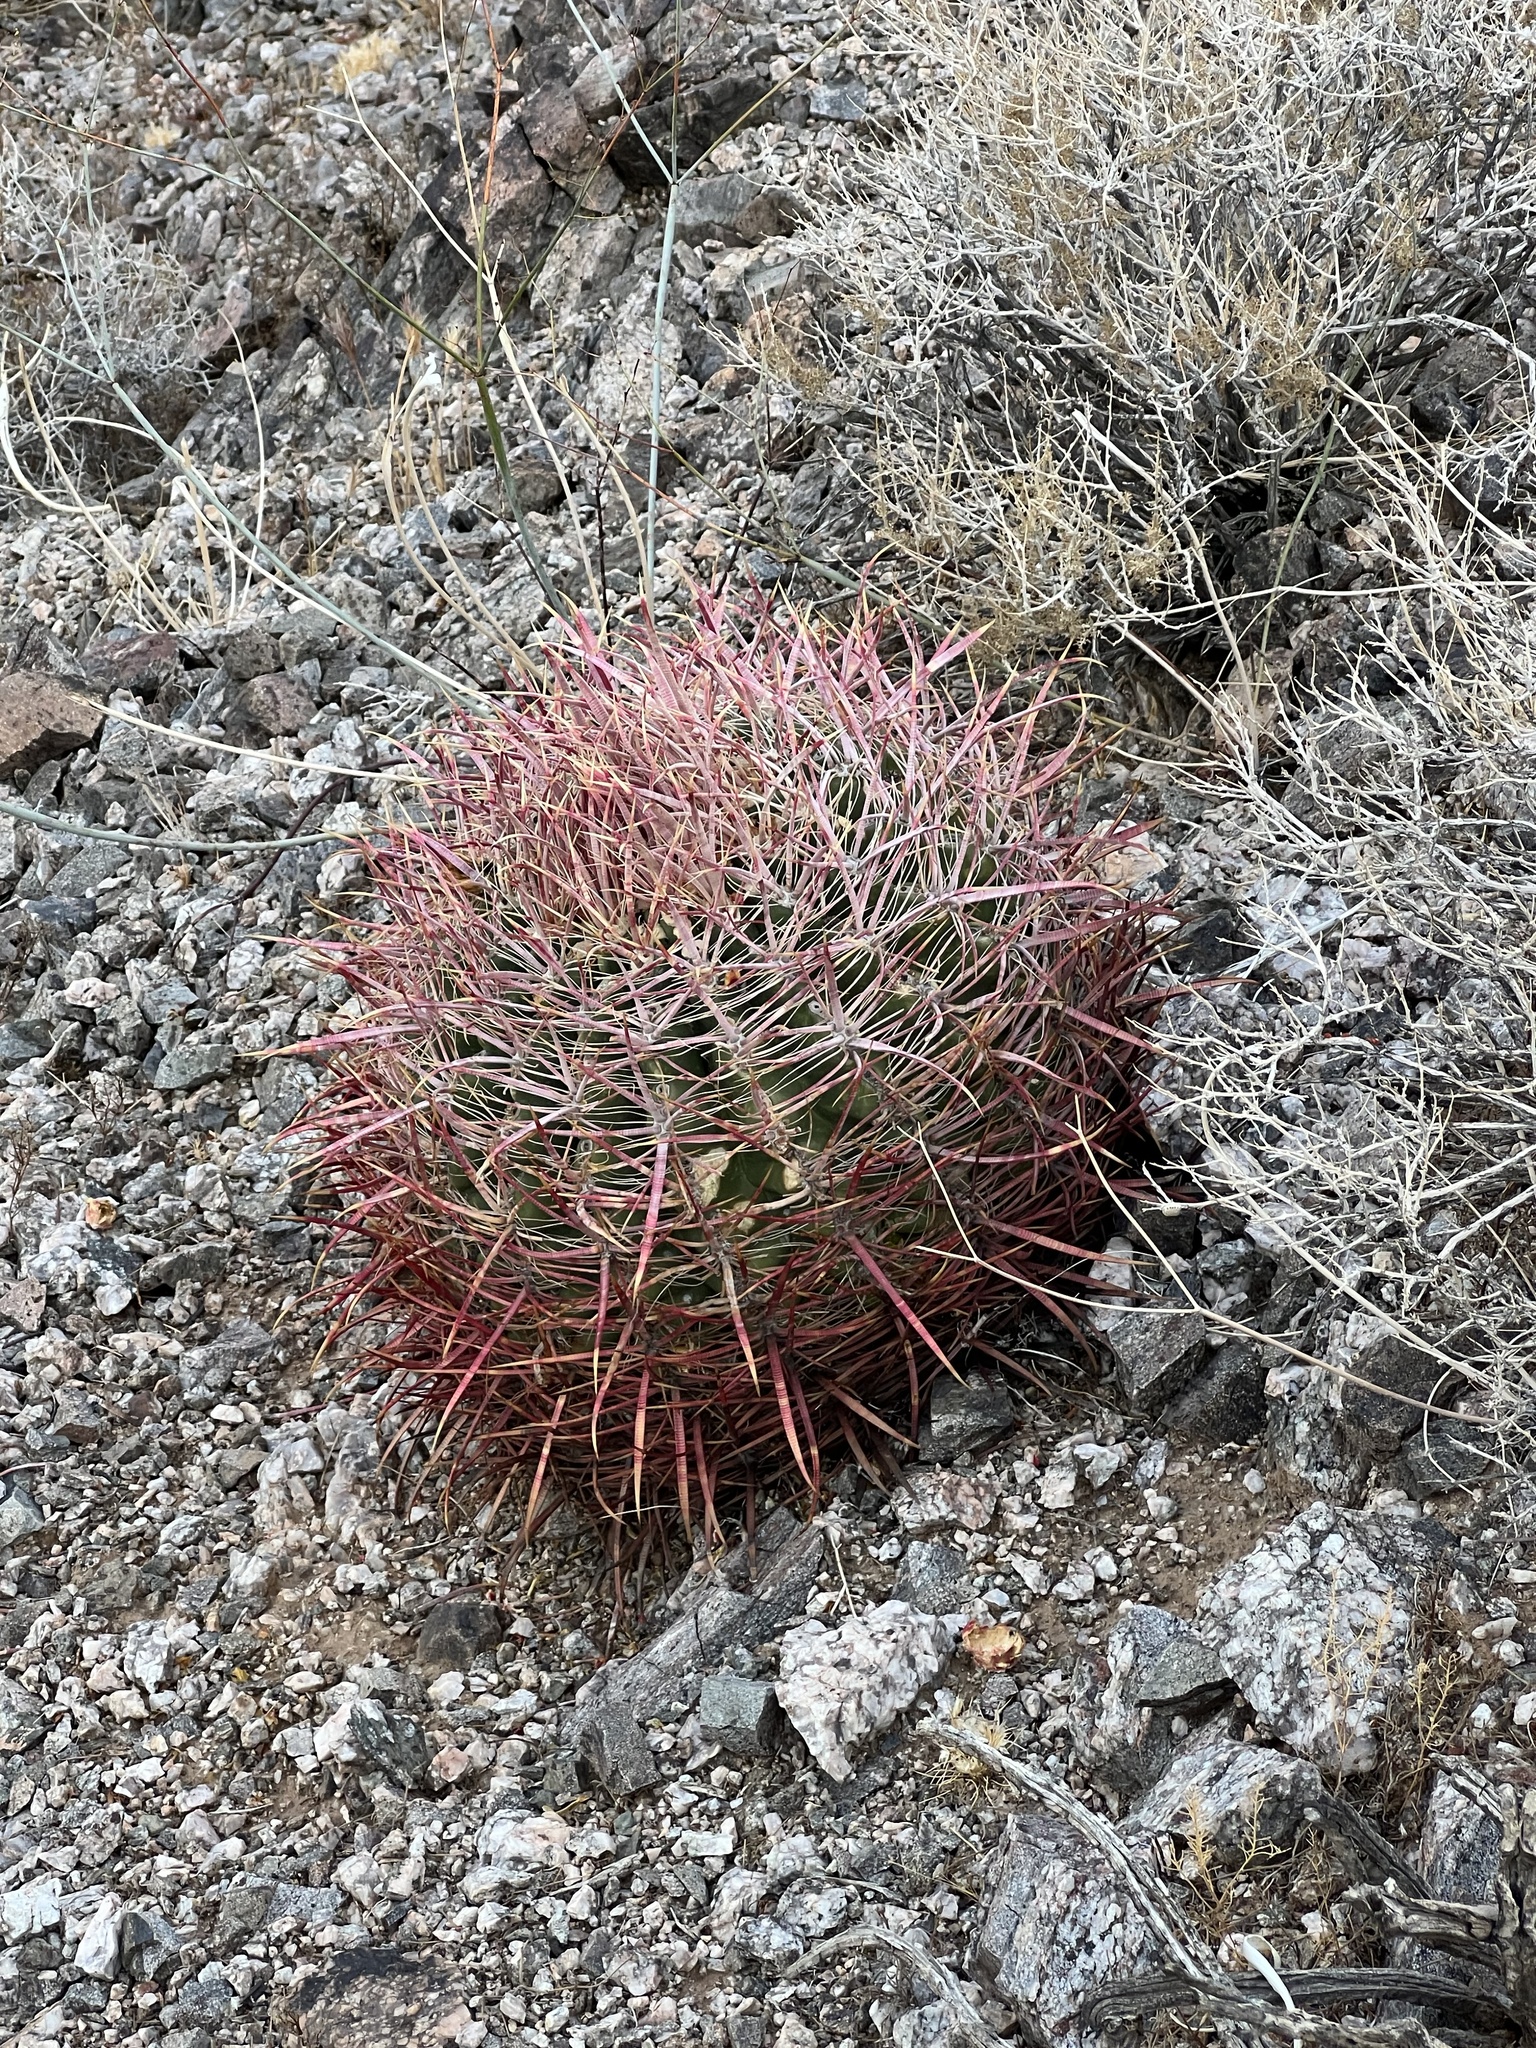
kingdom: Plantae
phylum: Tracheophyta
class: Magnoliopsida
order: Caryophyllales
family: Cactaceae
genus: Ferocactus
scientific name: Ferocactus cylindraceus
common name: California barrel cactus
